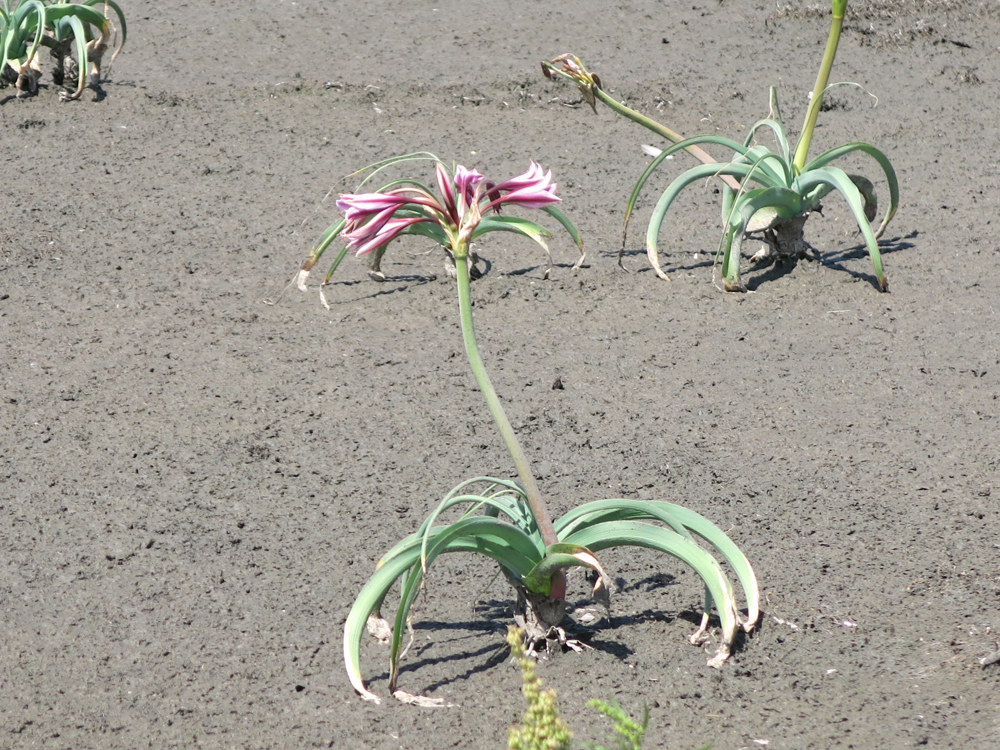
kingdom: Plantae
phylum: Tracheophyta
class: Liliopsida
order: Asparagales
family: Amaryllidaceae
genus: Crinum
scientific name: Crinum bulbispermum
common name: Hardy swamplily
